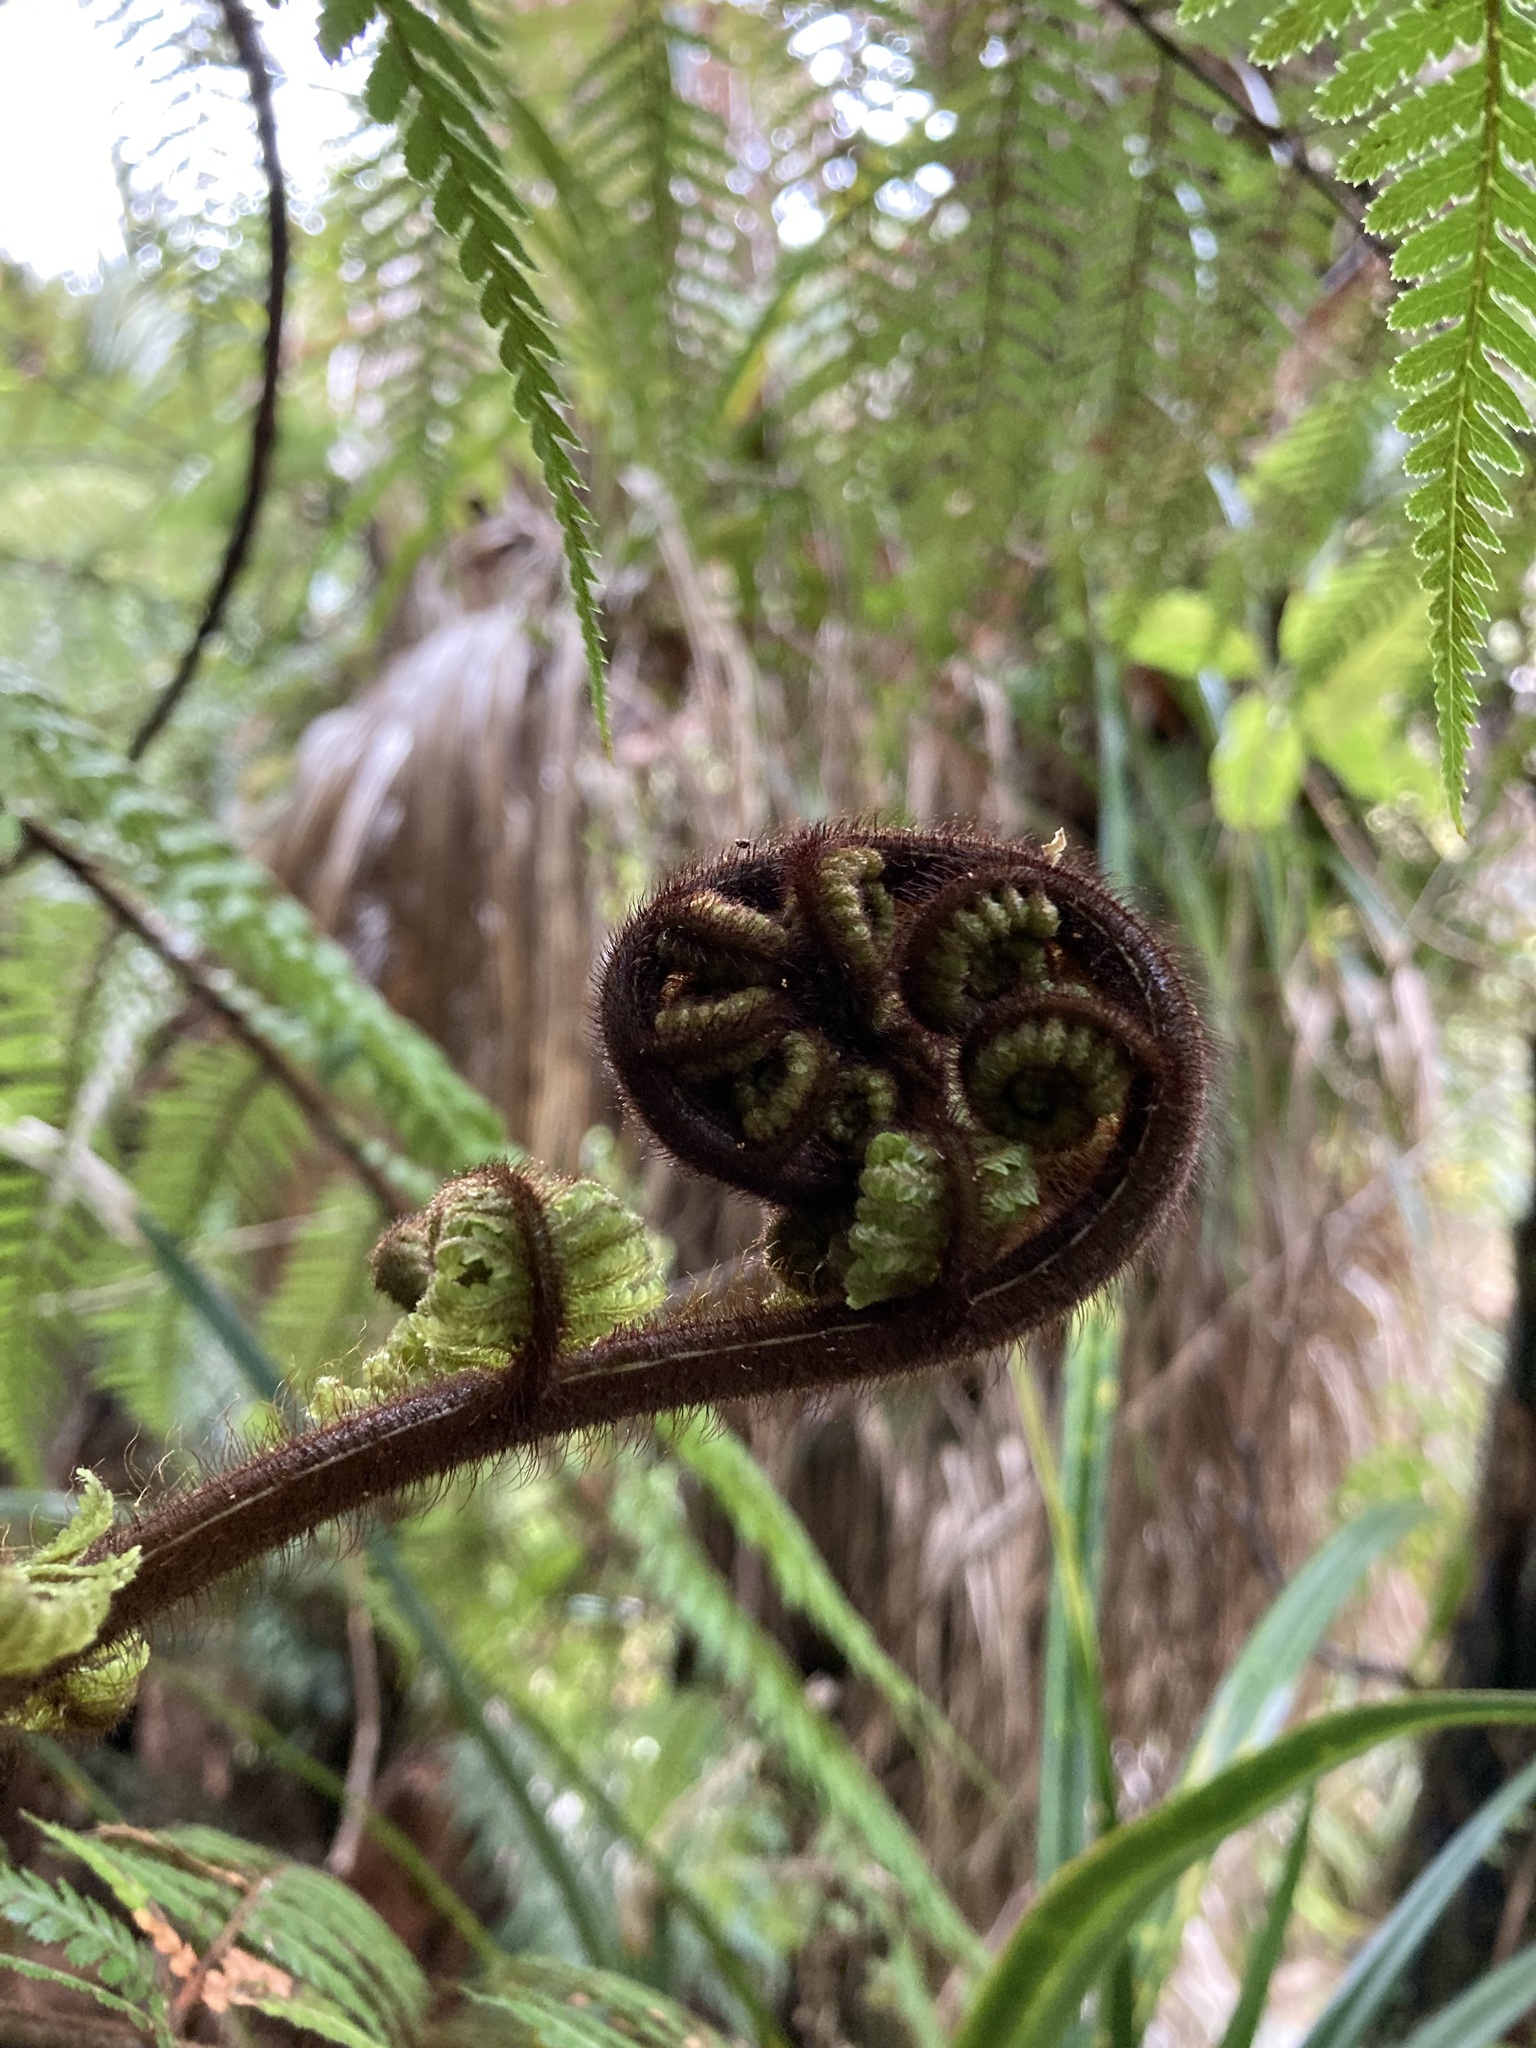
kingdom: Plantae
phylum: Tracheophyta
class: Polypodiopsida
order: Cyatheales
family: Dicksoniaceae
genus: Dicksonia
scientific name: Dicksonia squarrosa
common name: Hard treefern
